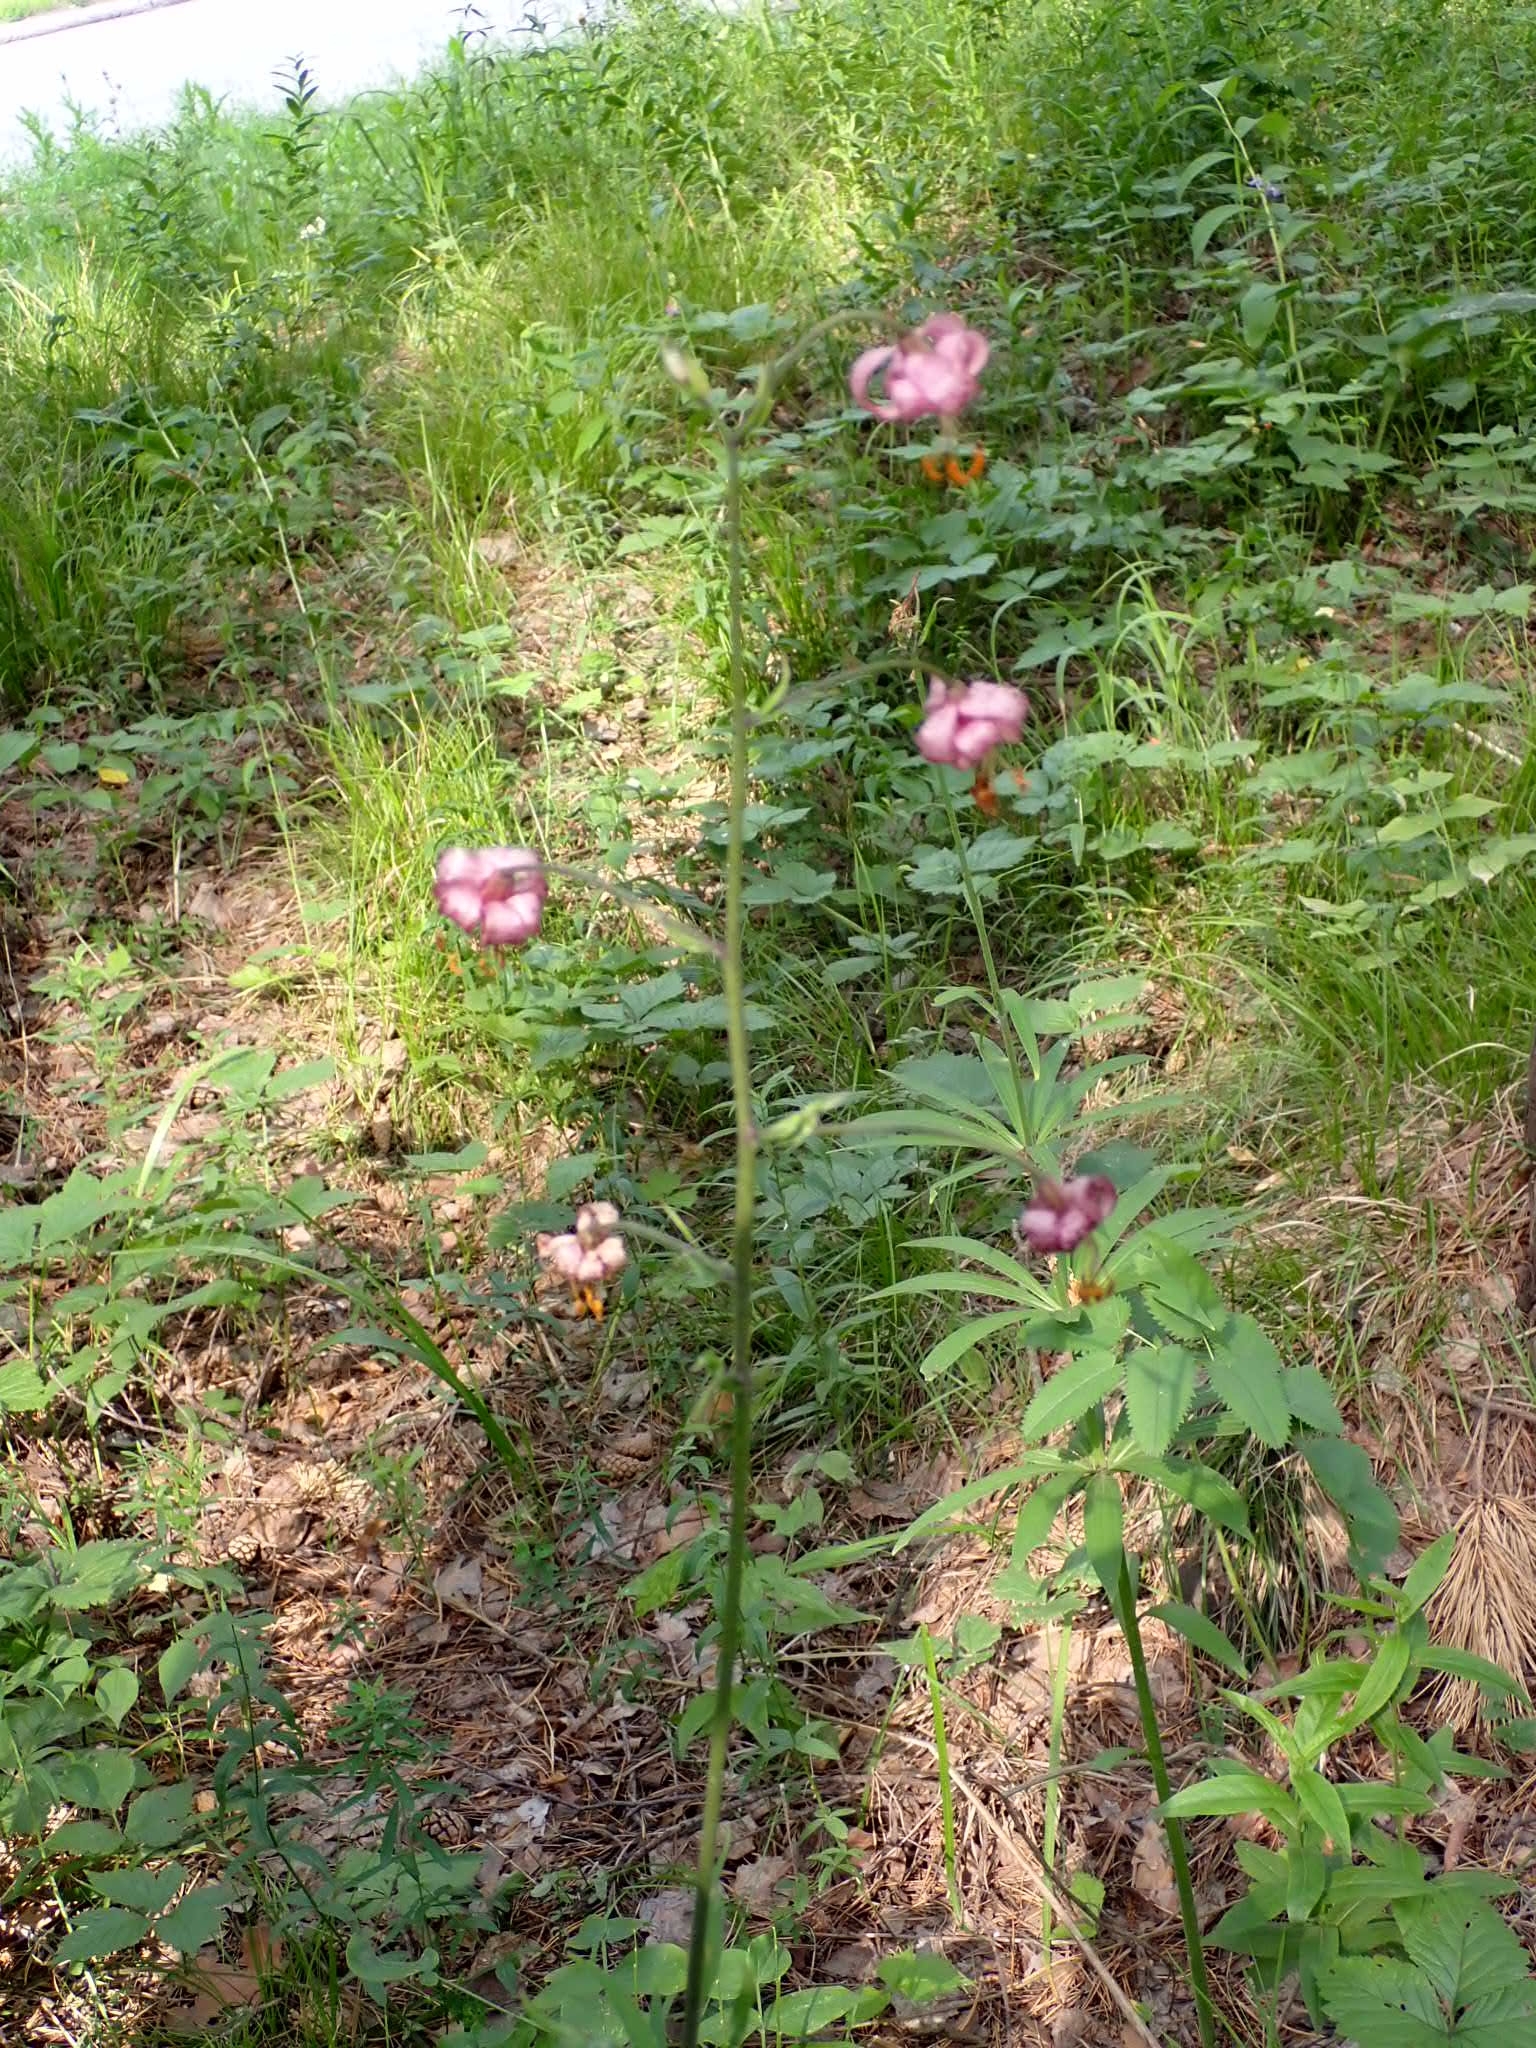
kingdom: Plantae
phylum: Tracheophyta
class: Liliopsida
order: Liliales
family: Liliaceae
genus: Lilium
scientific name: Lilium martagon
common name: Martagon lily
